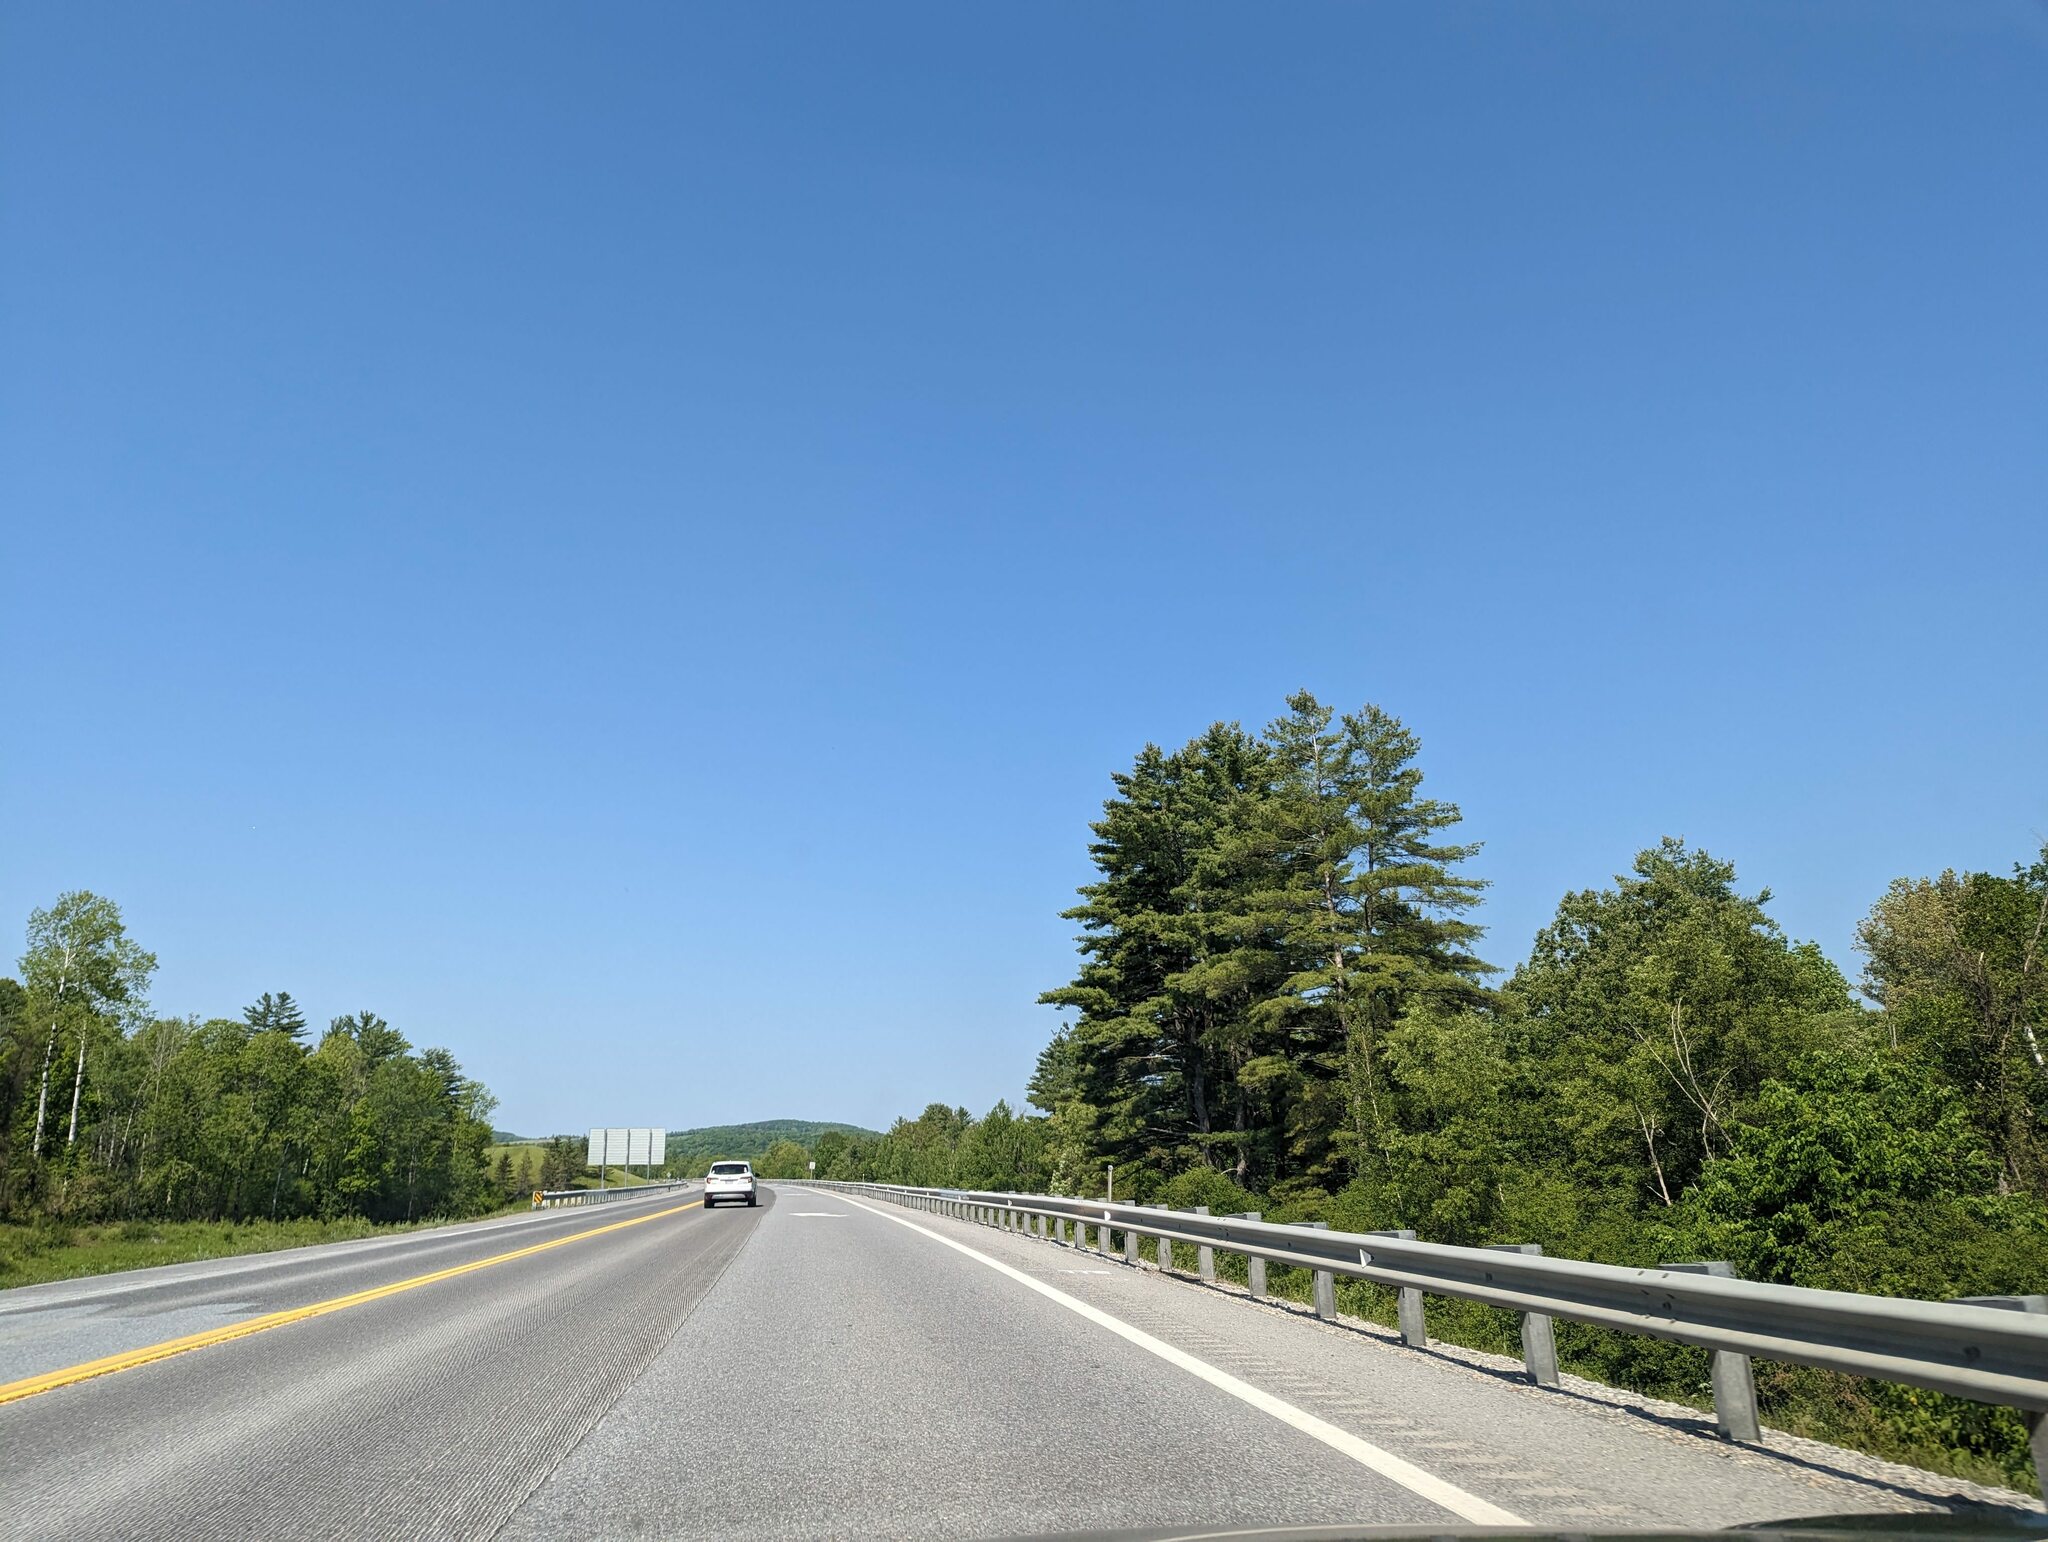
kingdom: Plantae
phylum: Tracheophyta
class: Pinopsida
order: Pinales
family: Pinaceae
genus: Pinus
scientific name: Pinus strobus
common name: Weymouth pine
